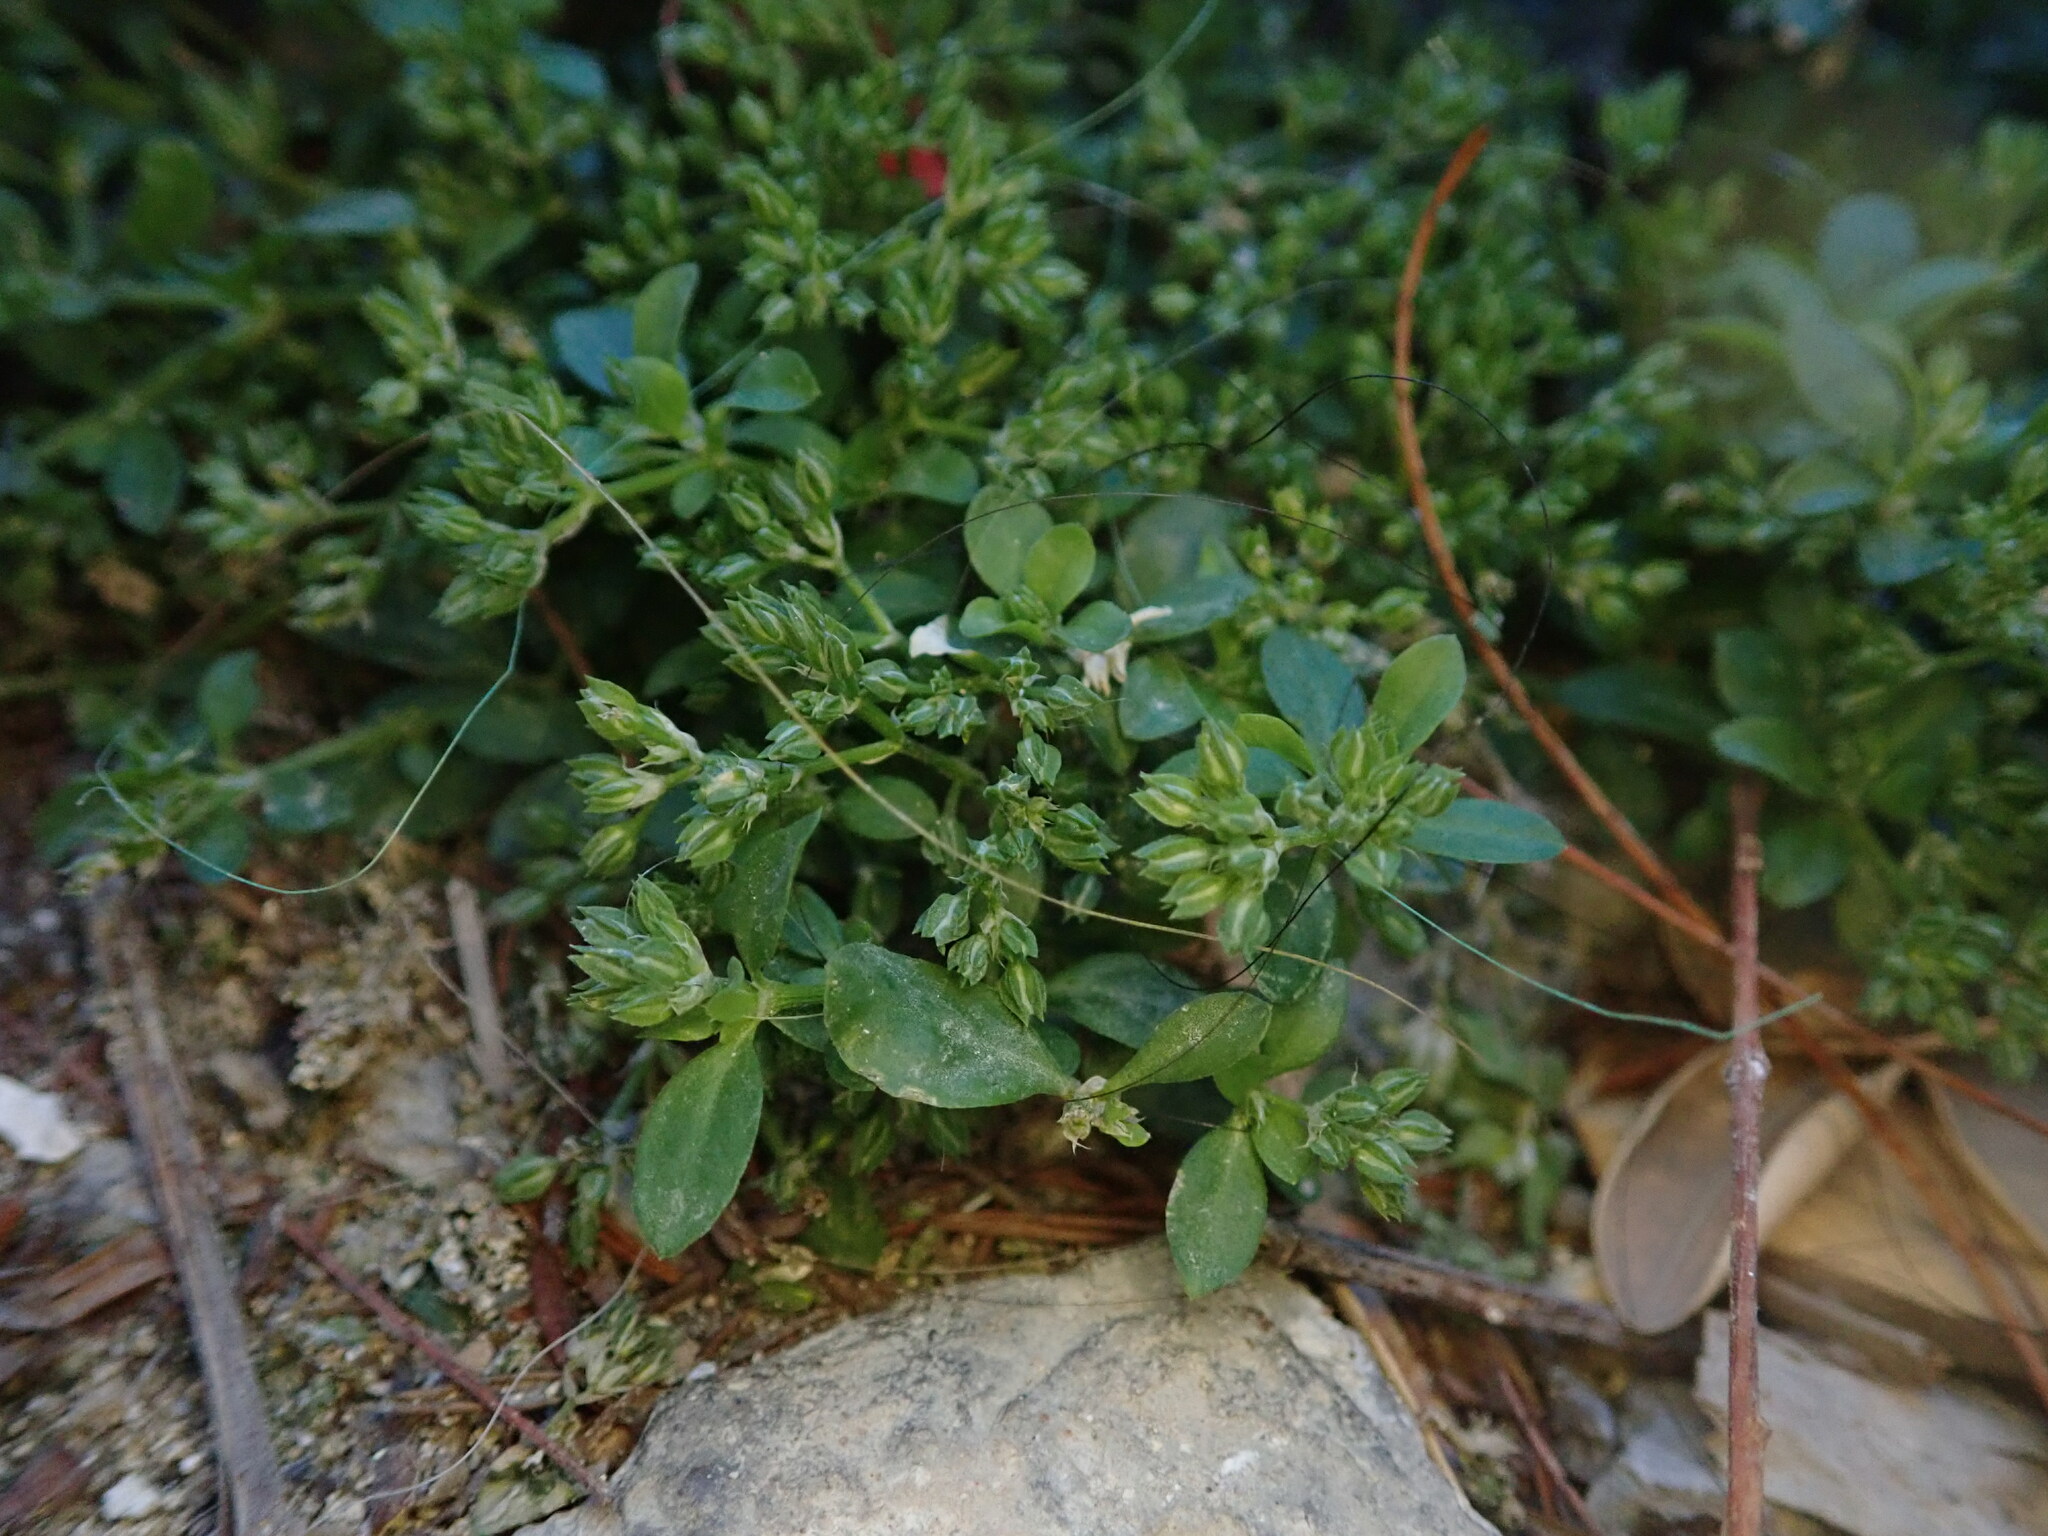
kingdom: Plantae
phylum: Tracheophyta
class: Magnoliopsida
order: Caryophyllales
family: Caryophyllaceae
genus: Polycarpon
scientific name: Polycarpon tetraphyllum
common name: Four-leaved all-seed
